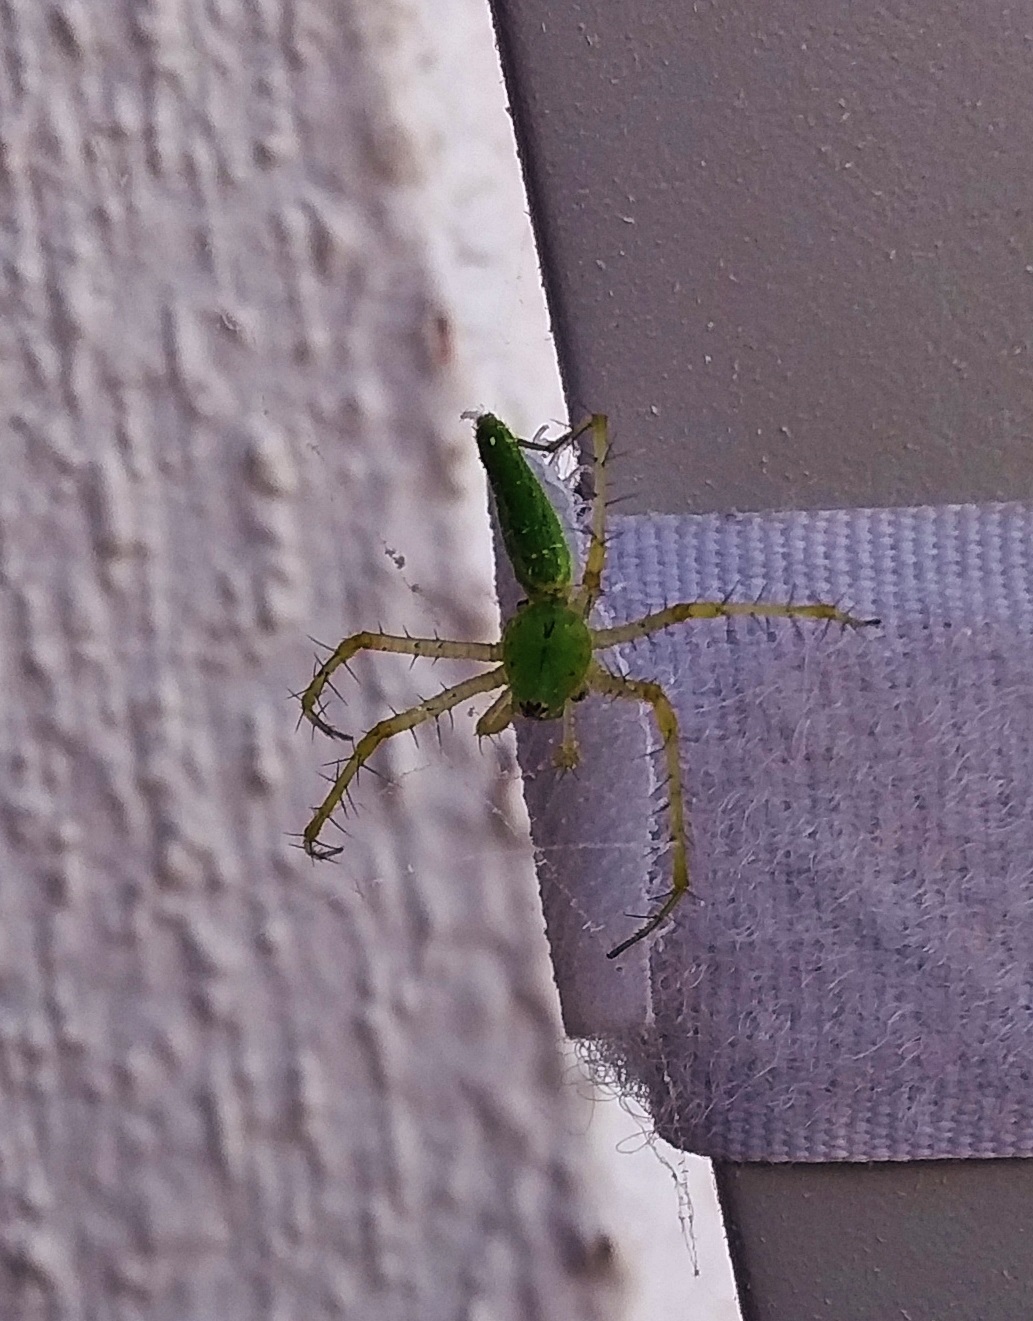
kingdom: Animalia
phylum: Arthropoda
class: Arachnida
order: Araneae
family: Oxyopidae
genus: Peucetia
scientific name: Peucetia longipalpis
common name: Lynx spiders
